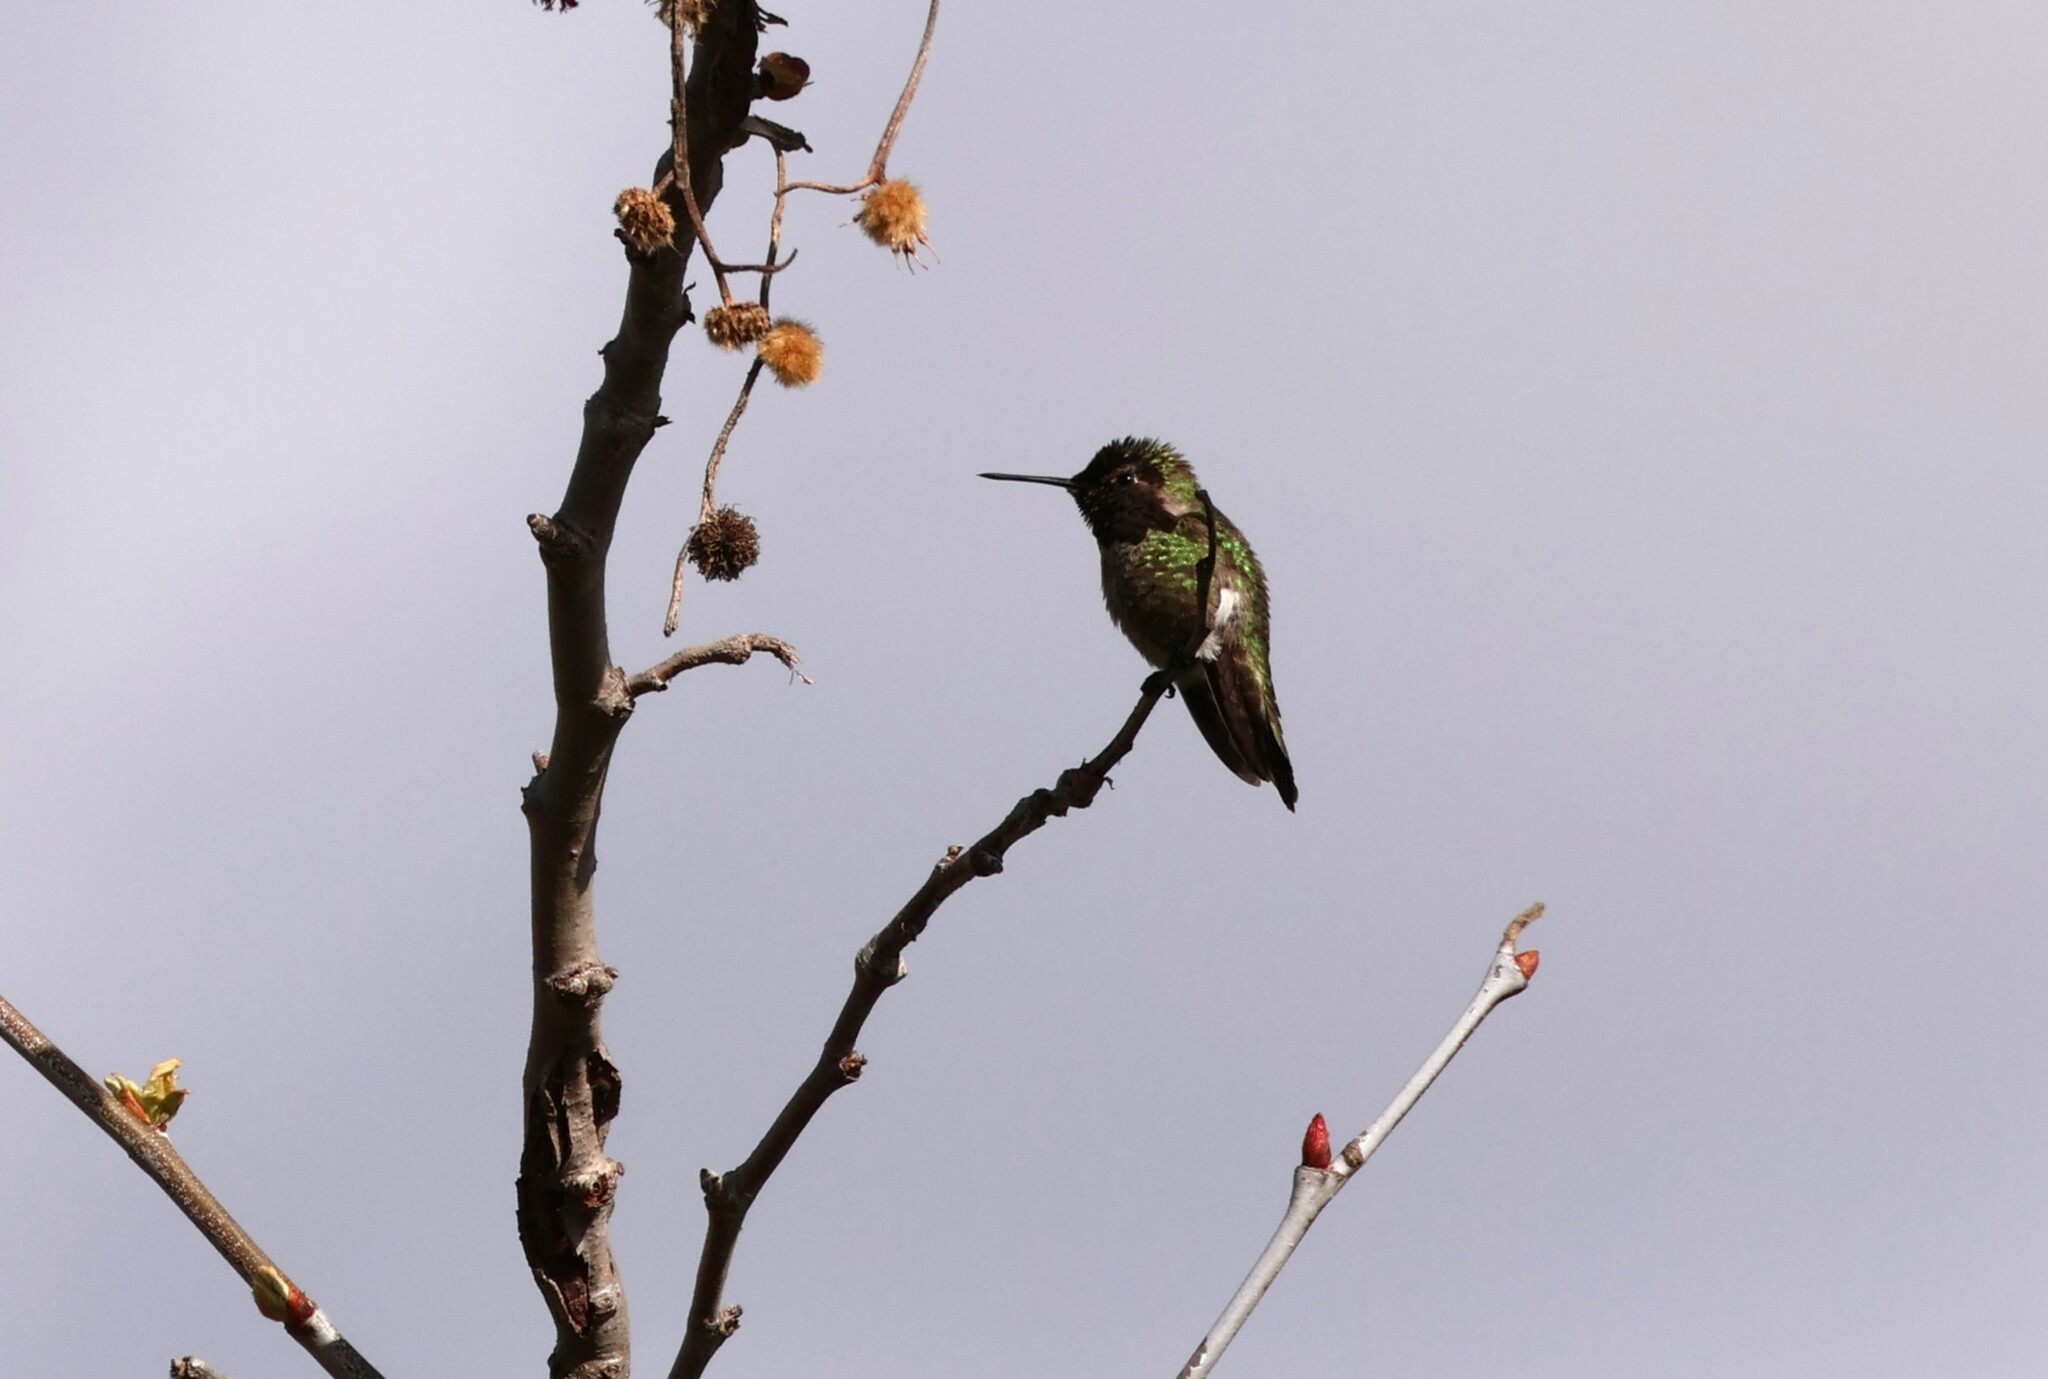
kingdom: Animalia
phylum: Chordata
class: Aves
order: Apodiformes
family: Trochilidae
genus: Calypte
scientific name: Calypte anna
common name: Anna's hummingbird
